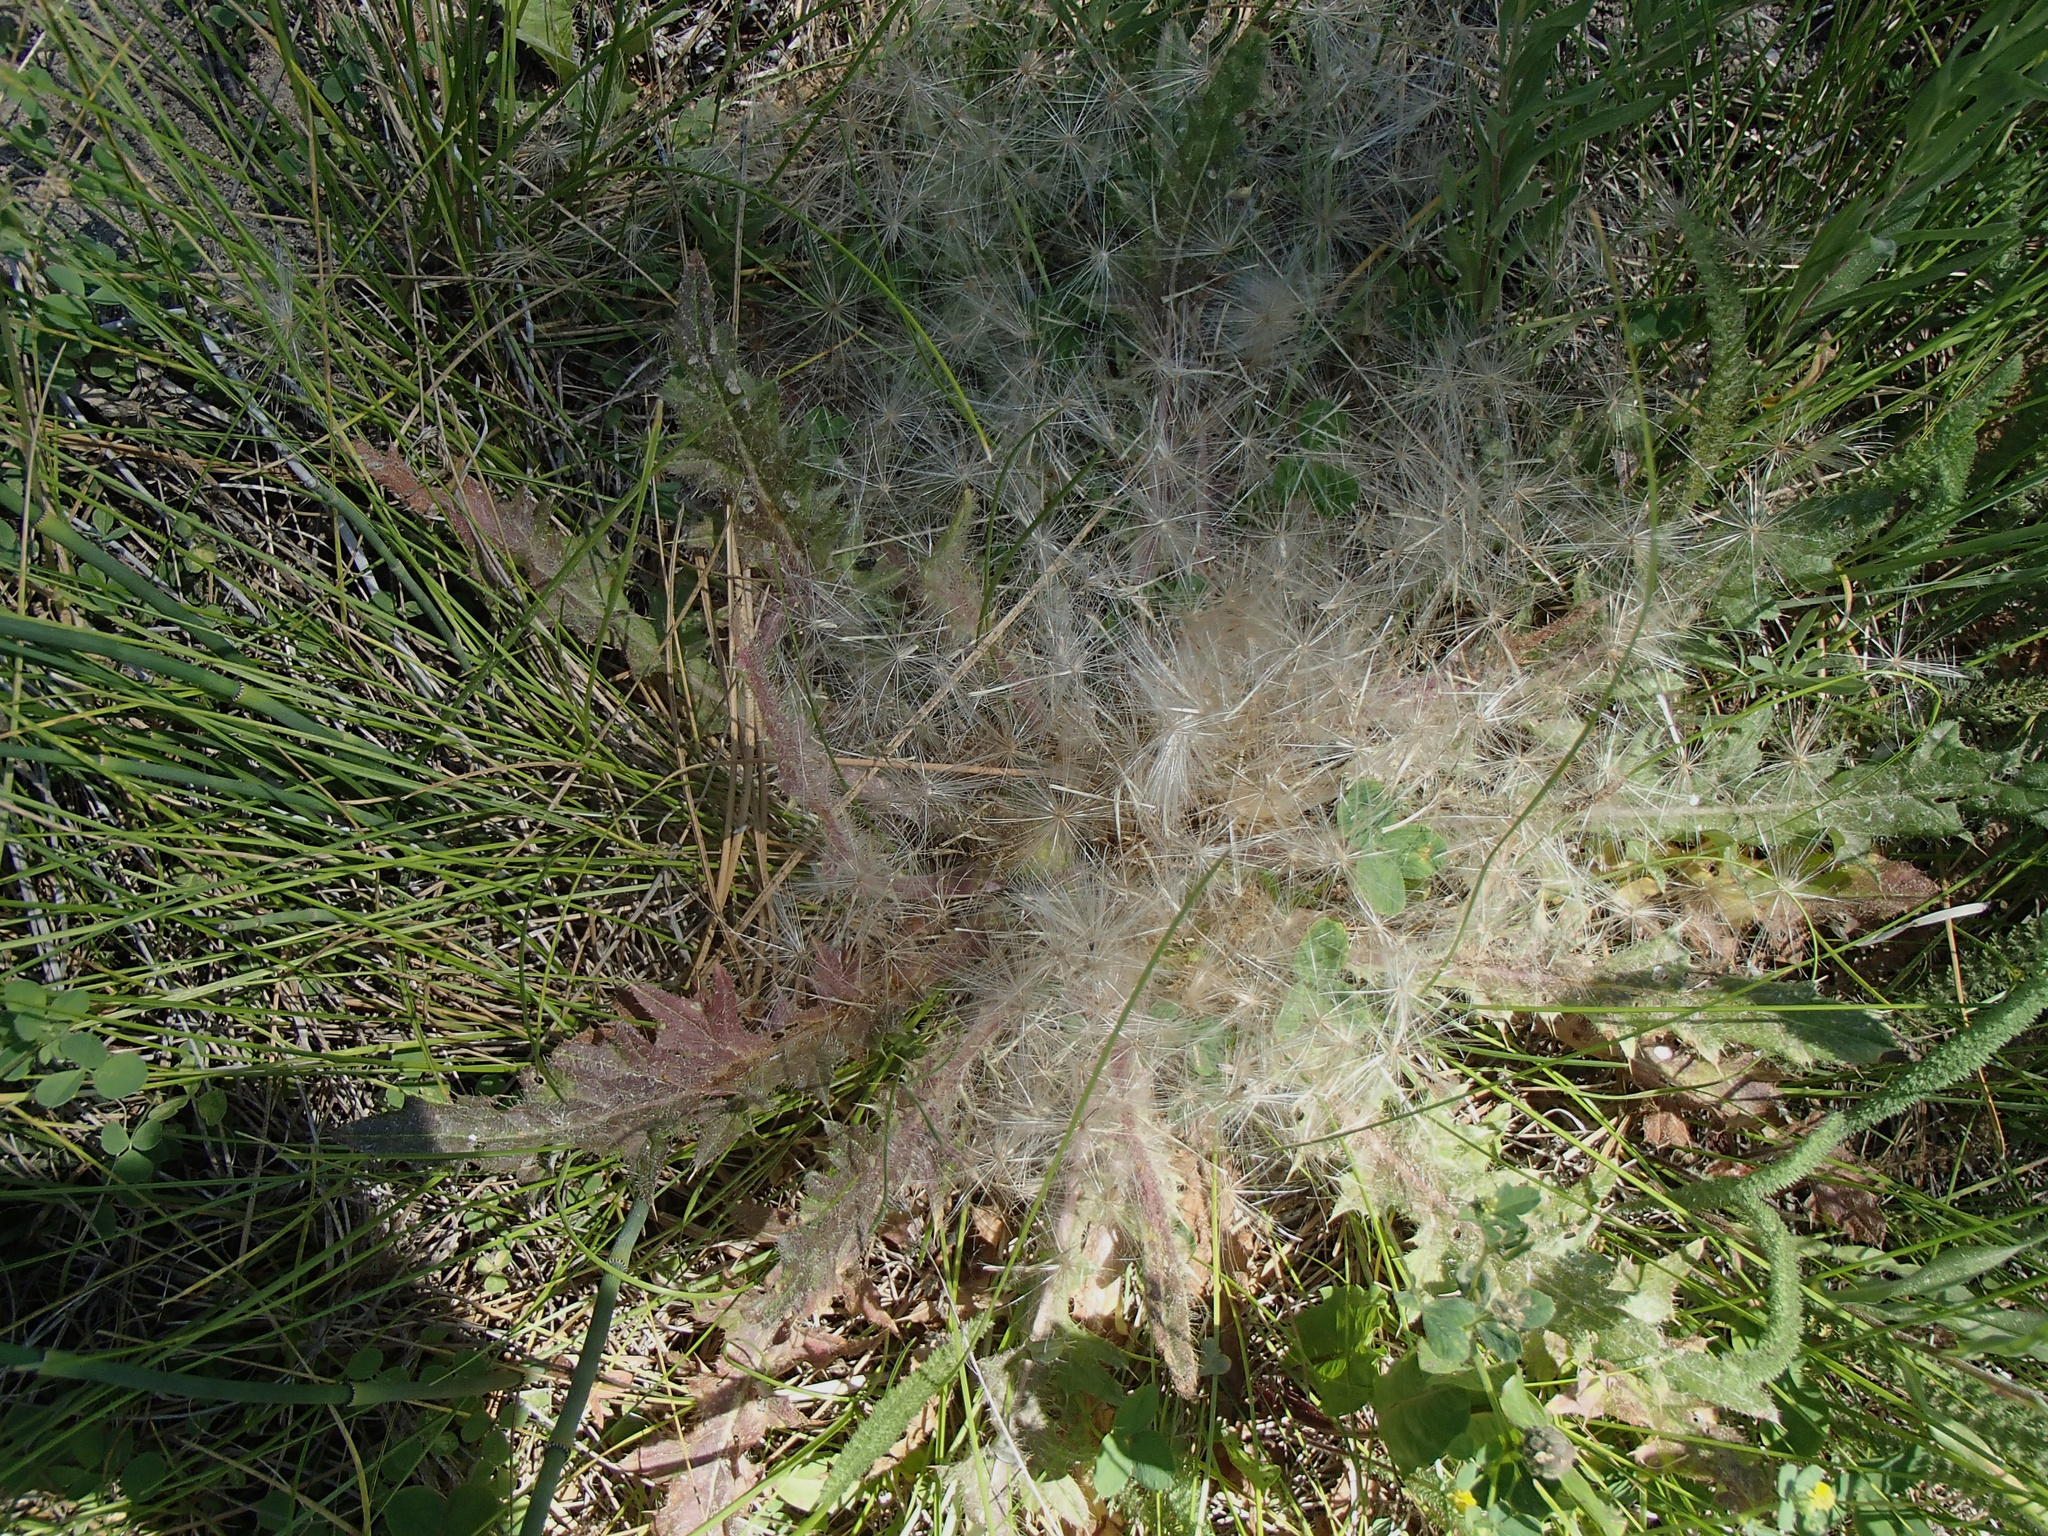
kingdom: Plantae
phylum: Tracheophyta
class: Magnoliopsida
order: Asterales
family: Asteraceae
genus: Cirsium
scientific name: Cirsium scariosum
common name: Meadow thistle
